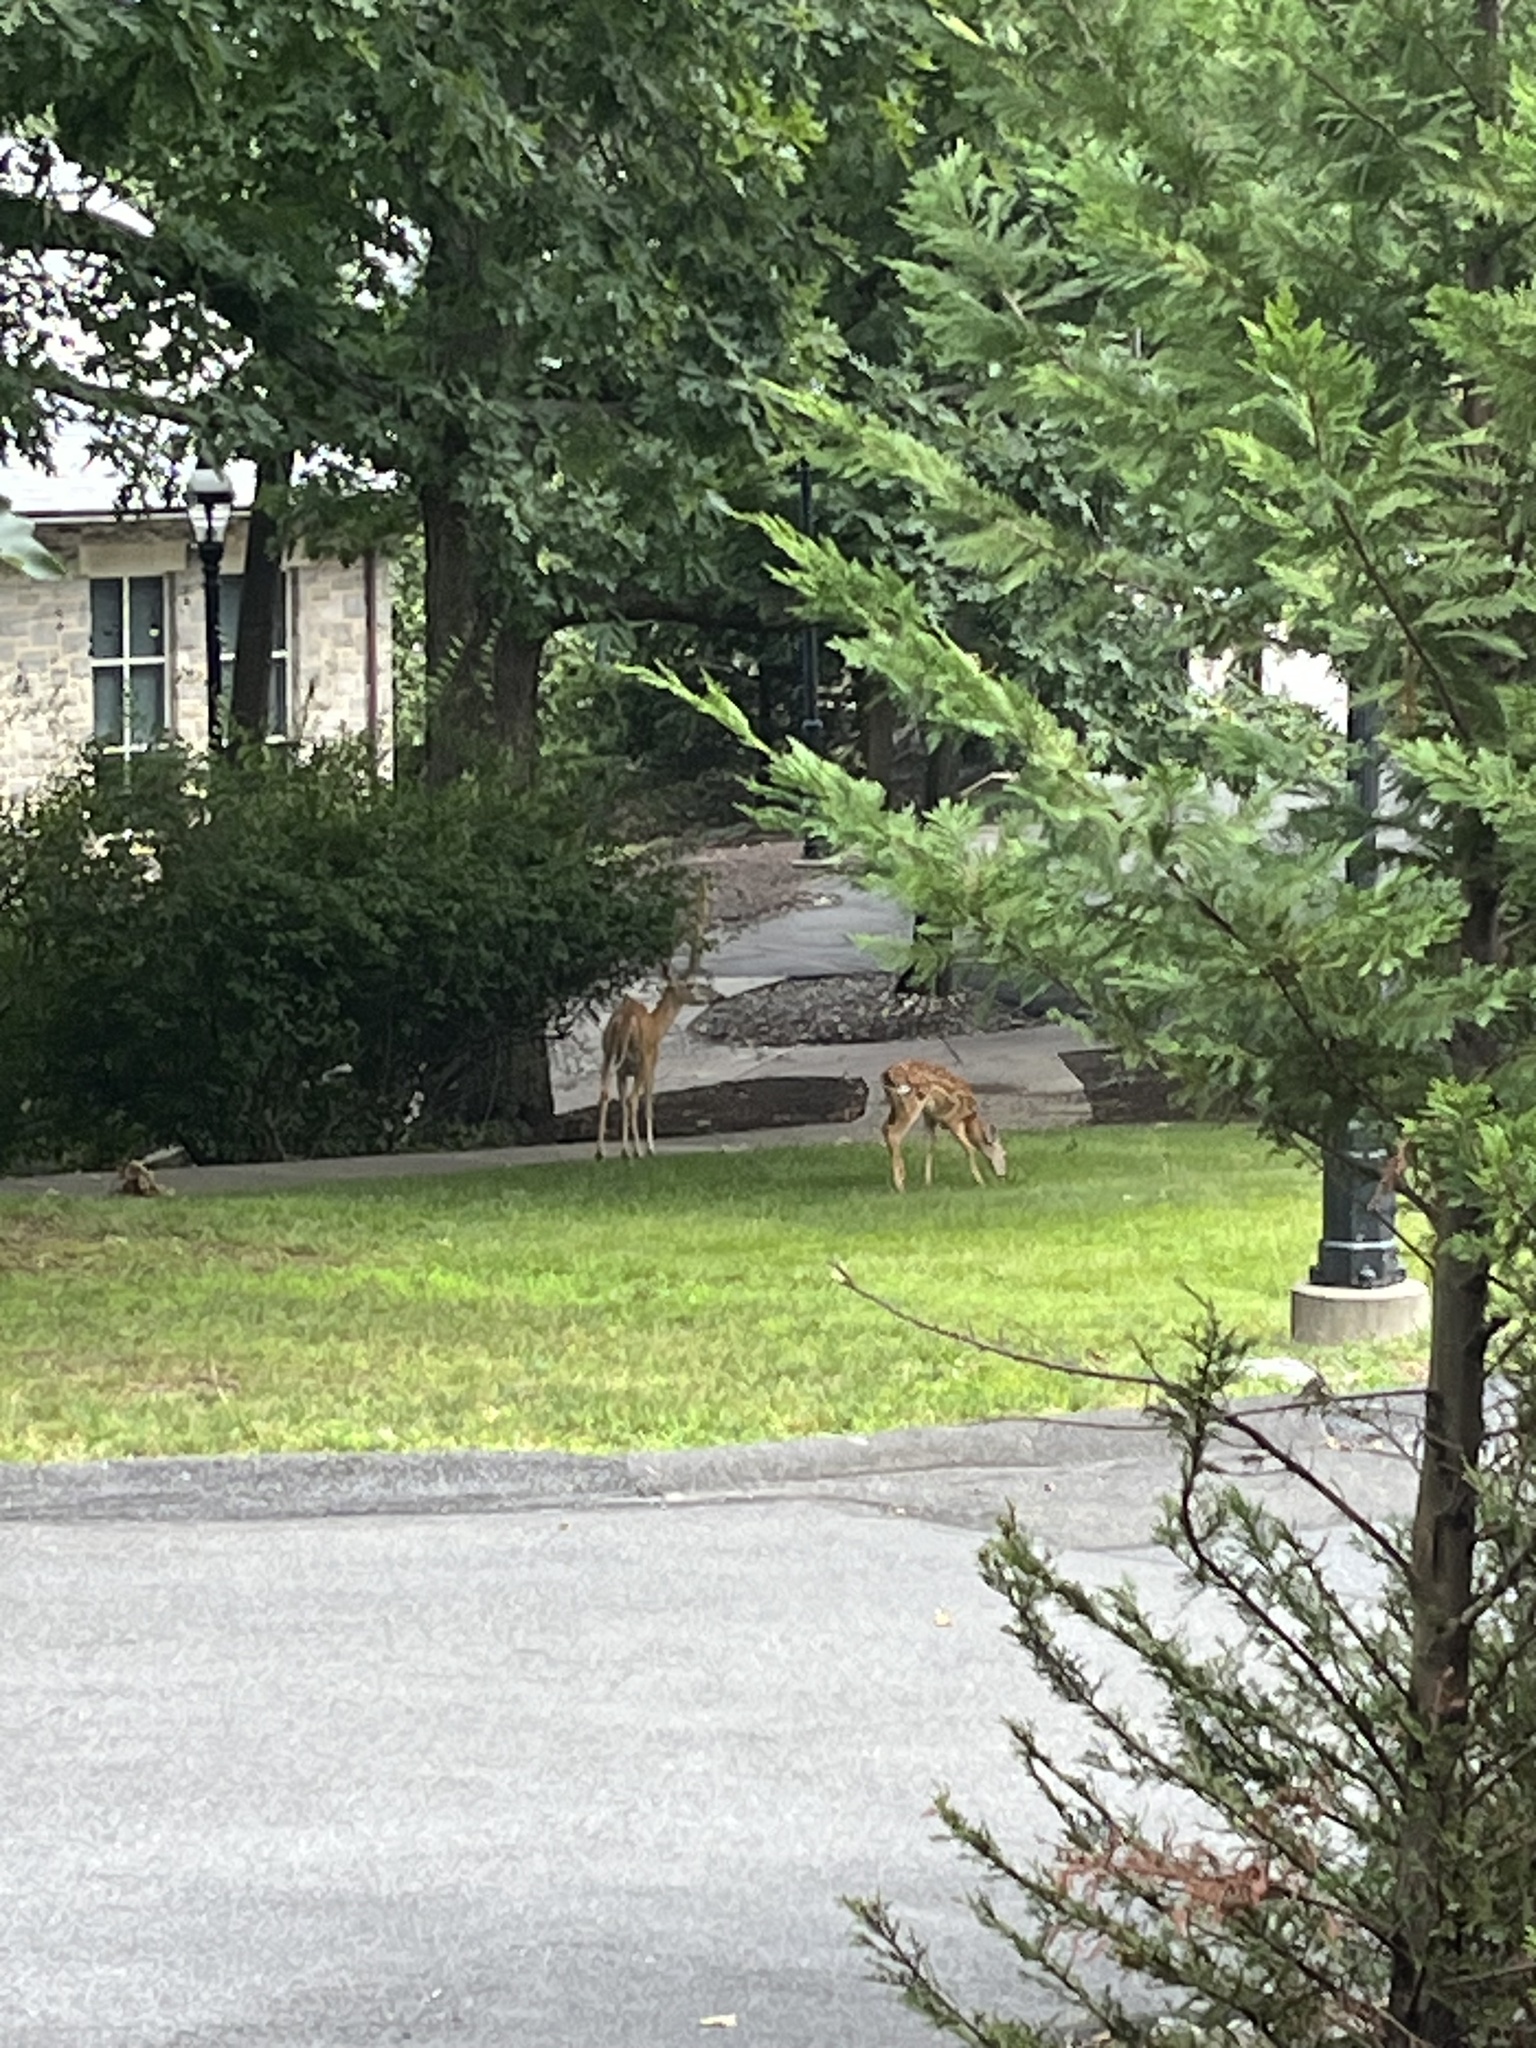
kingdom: Animalia
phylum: Chordata
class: Mammalia
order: Artiodactyla
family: Cervidae
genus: Odocoileus
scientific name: Odocoileus virginianus
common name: White-tailed deer
